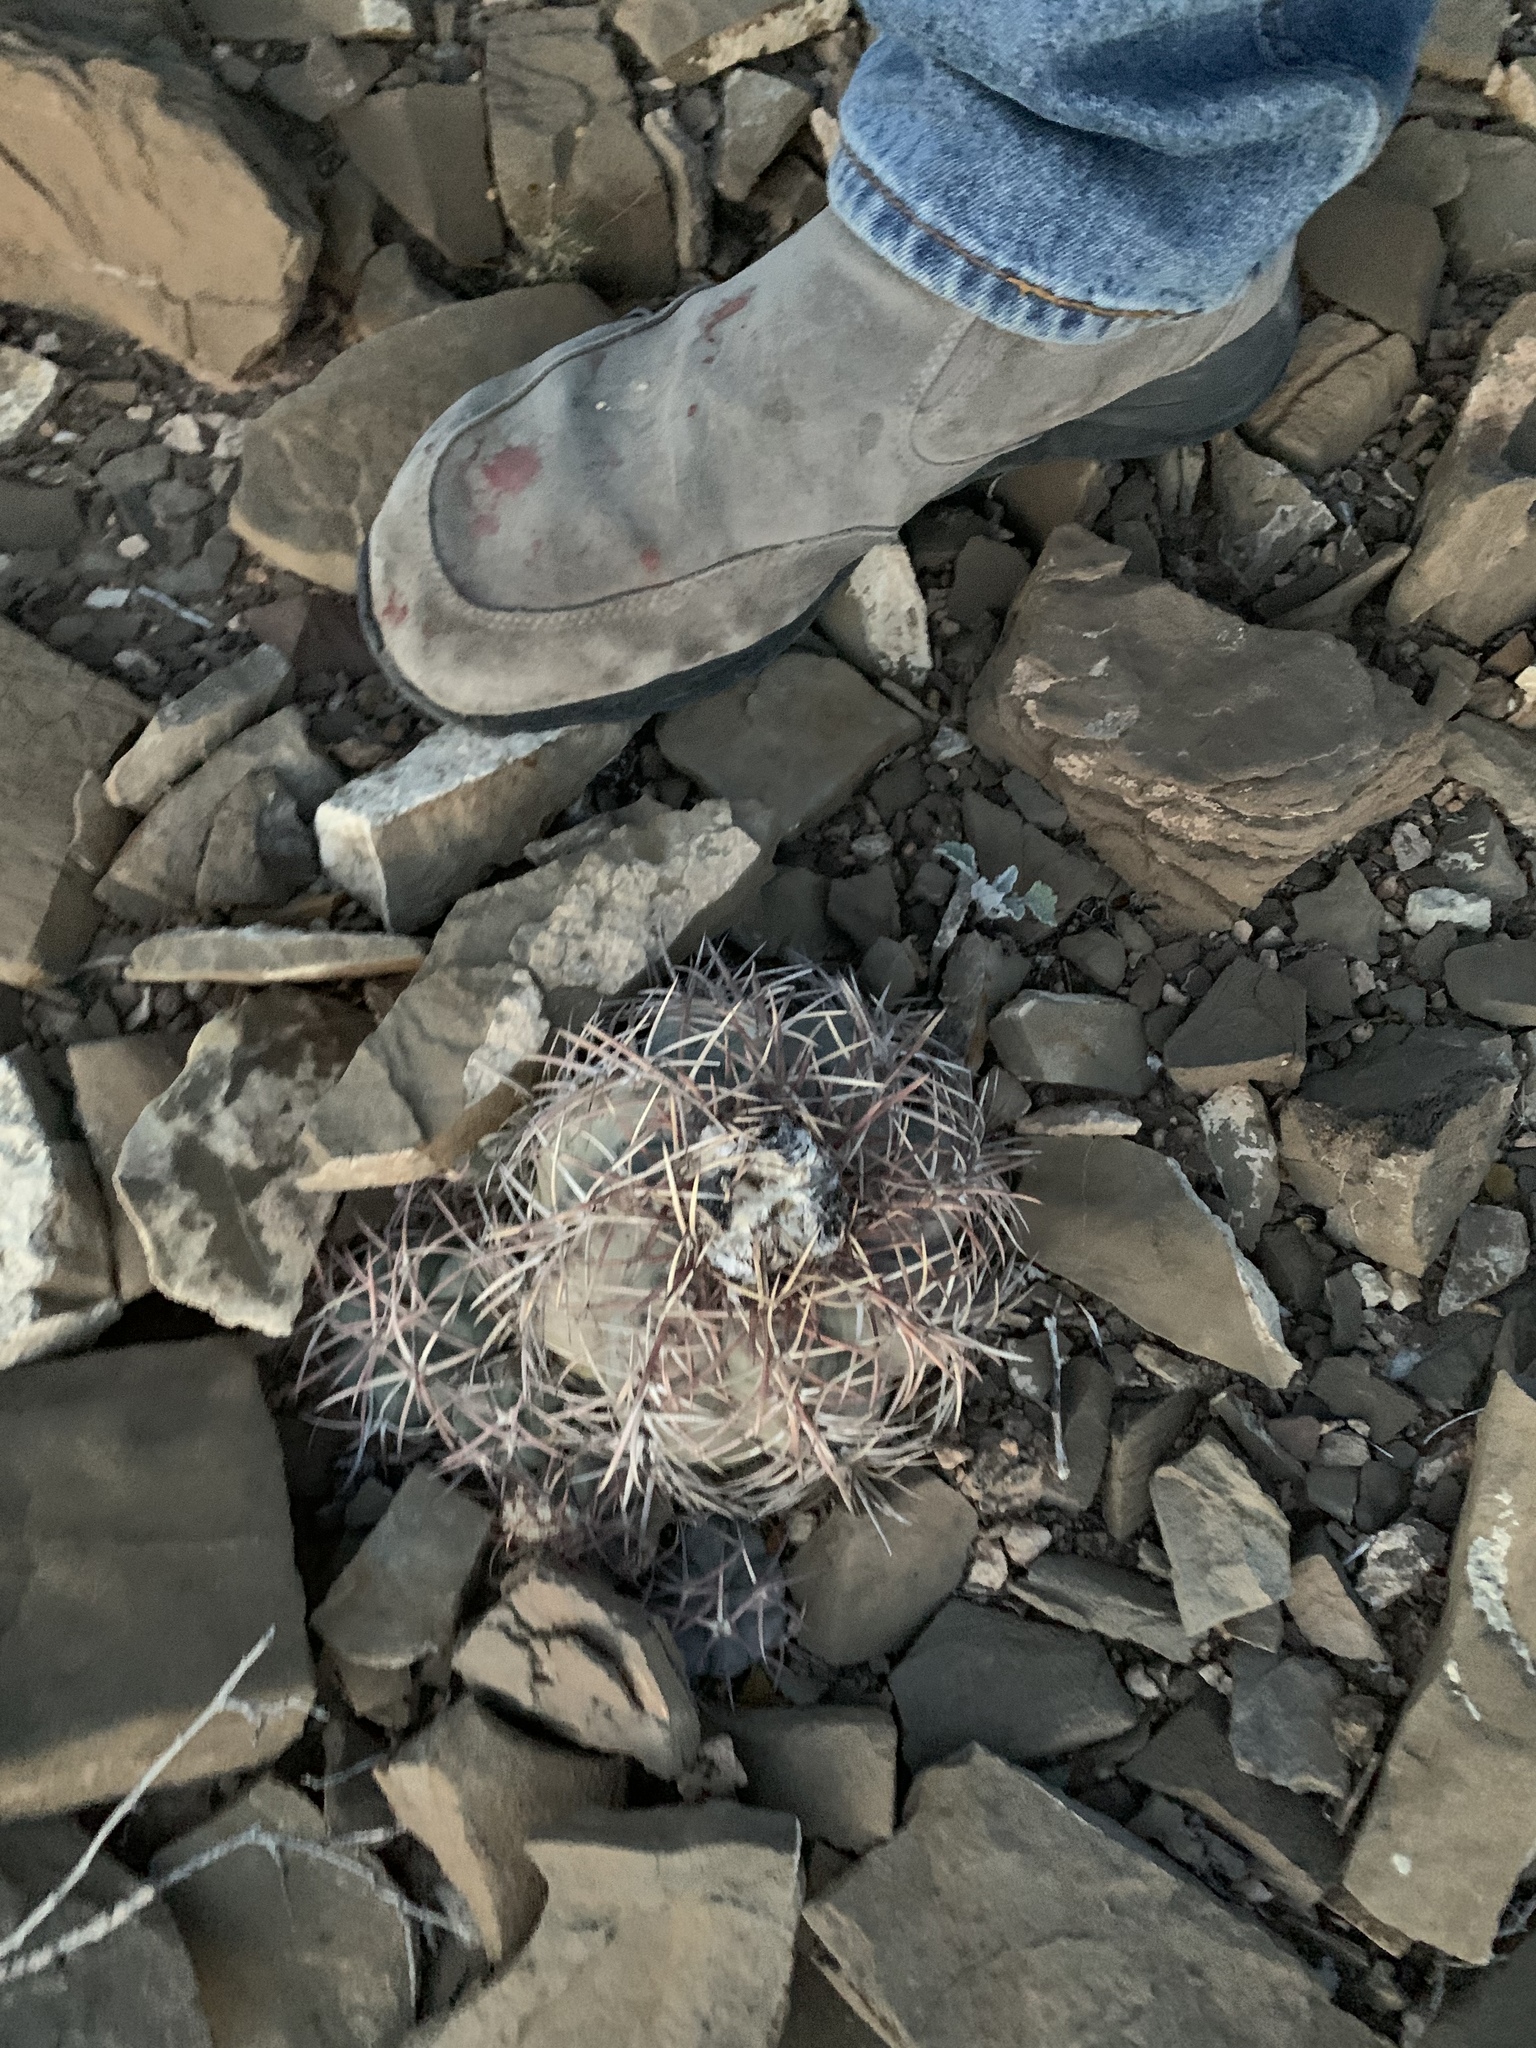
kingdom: Plantae
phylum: Tracheophyta
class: Magnoliopsida
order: Caryophyllales
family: Cactaceae
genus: Echinocactus
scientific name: Echinocactus horizonthalonius
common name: Devilshead
